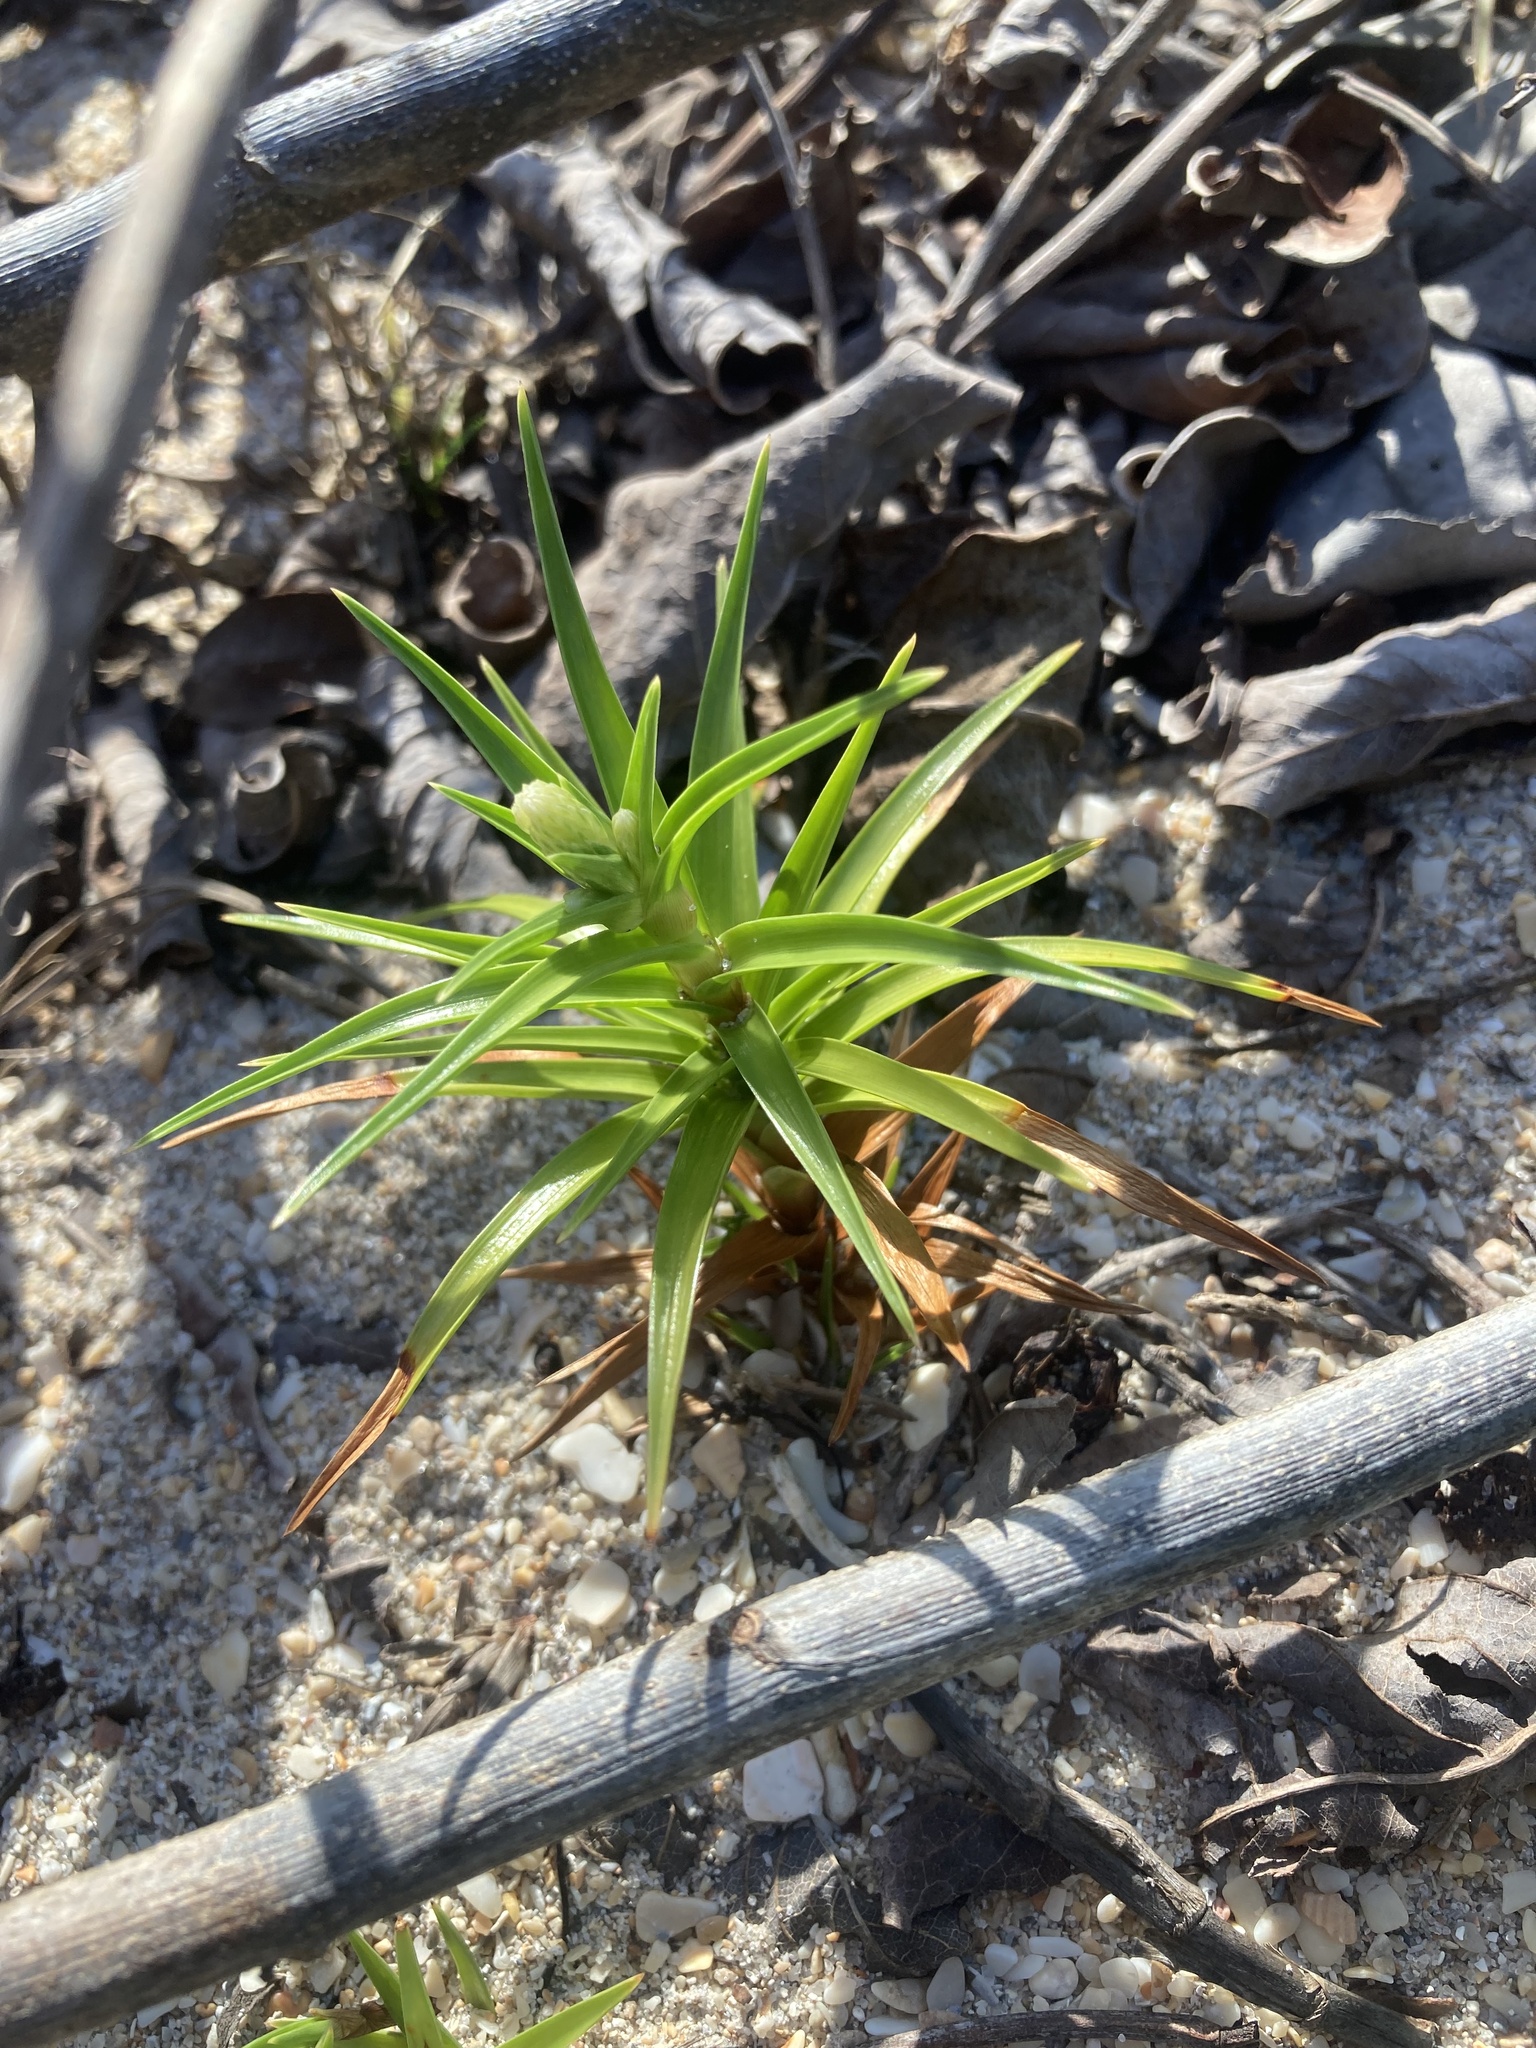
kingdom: Plantae
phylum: Tracheophyta
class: Liliopsida
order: Poales
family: Cyperaceae
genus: Cyperus
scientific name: Cyperus pedunculatus
